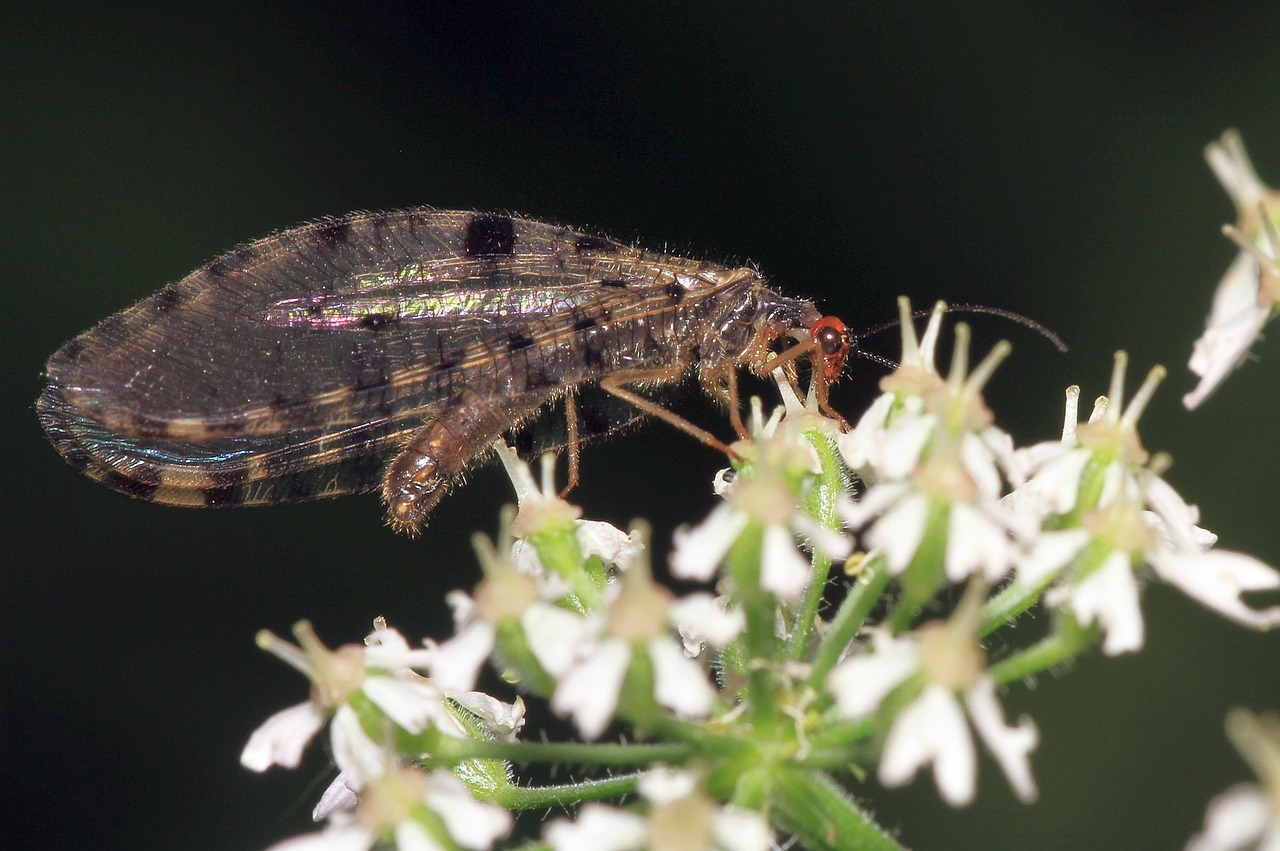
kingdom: Animalia
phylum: Arthropoda
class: Insecta
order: Neuroptera
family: Osmylidae
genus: Osmylus
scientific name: Osmylus fulvicephalus
